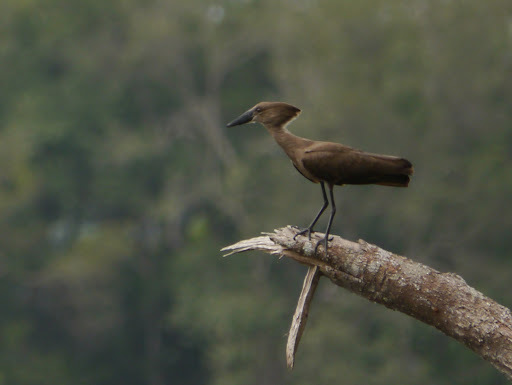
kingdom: Animalia
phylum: Chordata
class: Aves
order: Pelecaniformes
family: Scopidae
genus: Scopus
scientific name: Scopus umbretta
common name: Hamerkop
